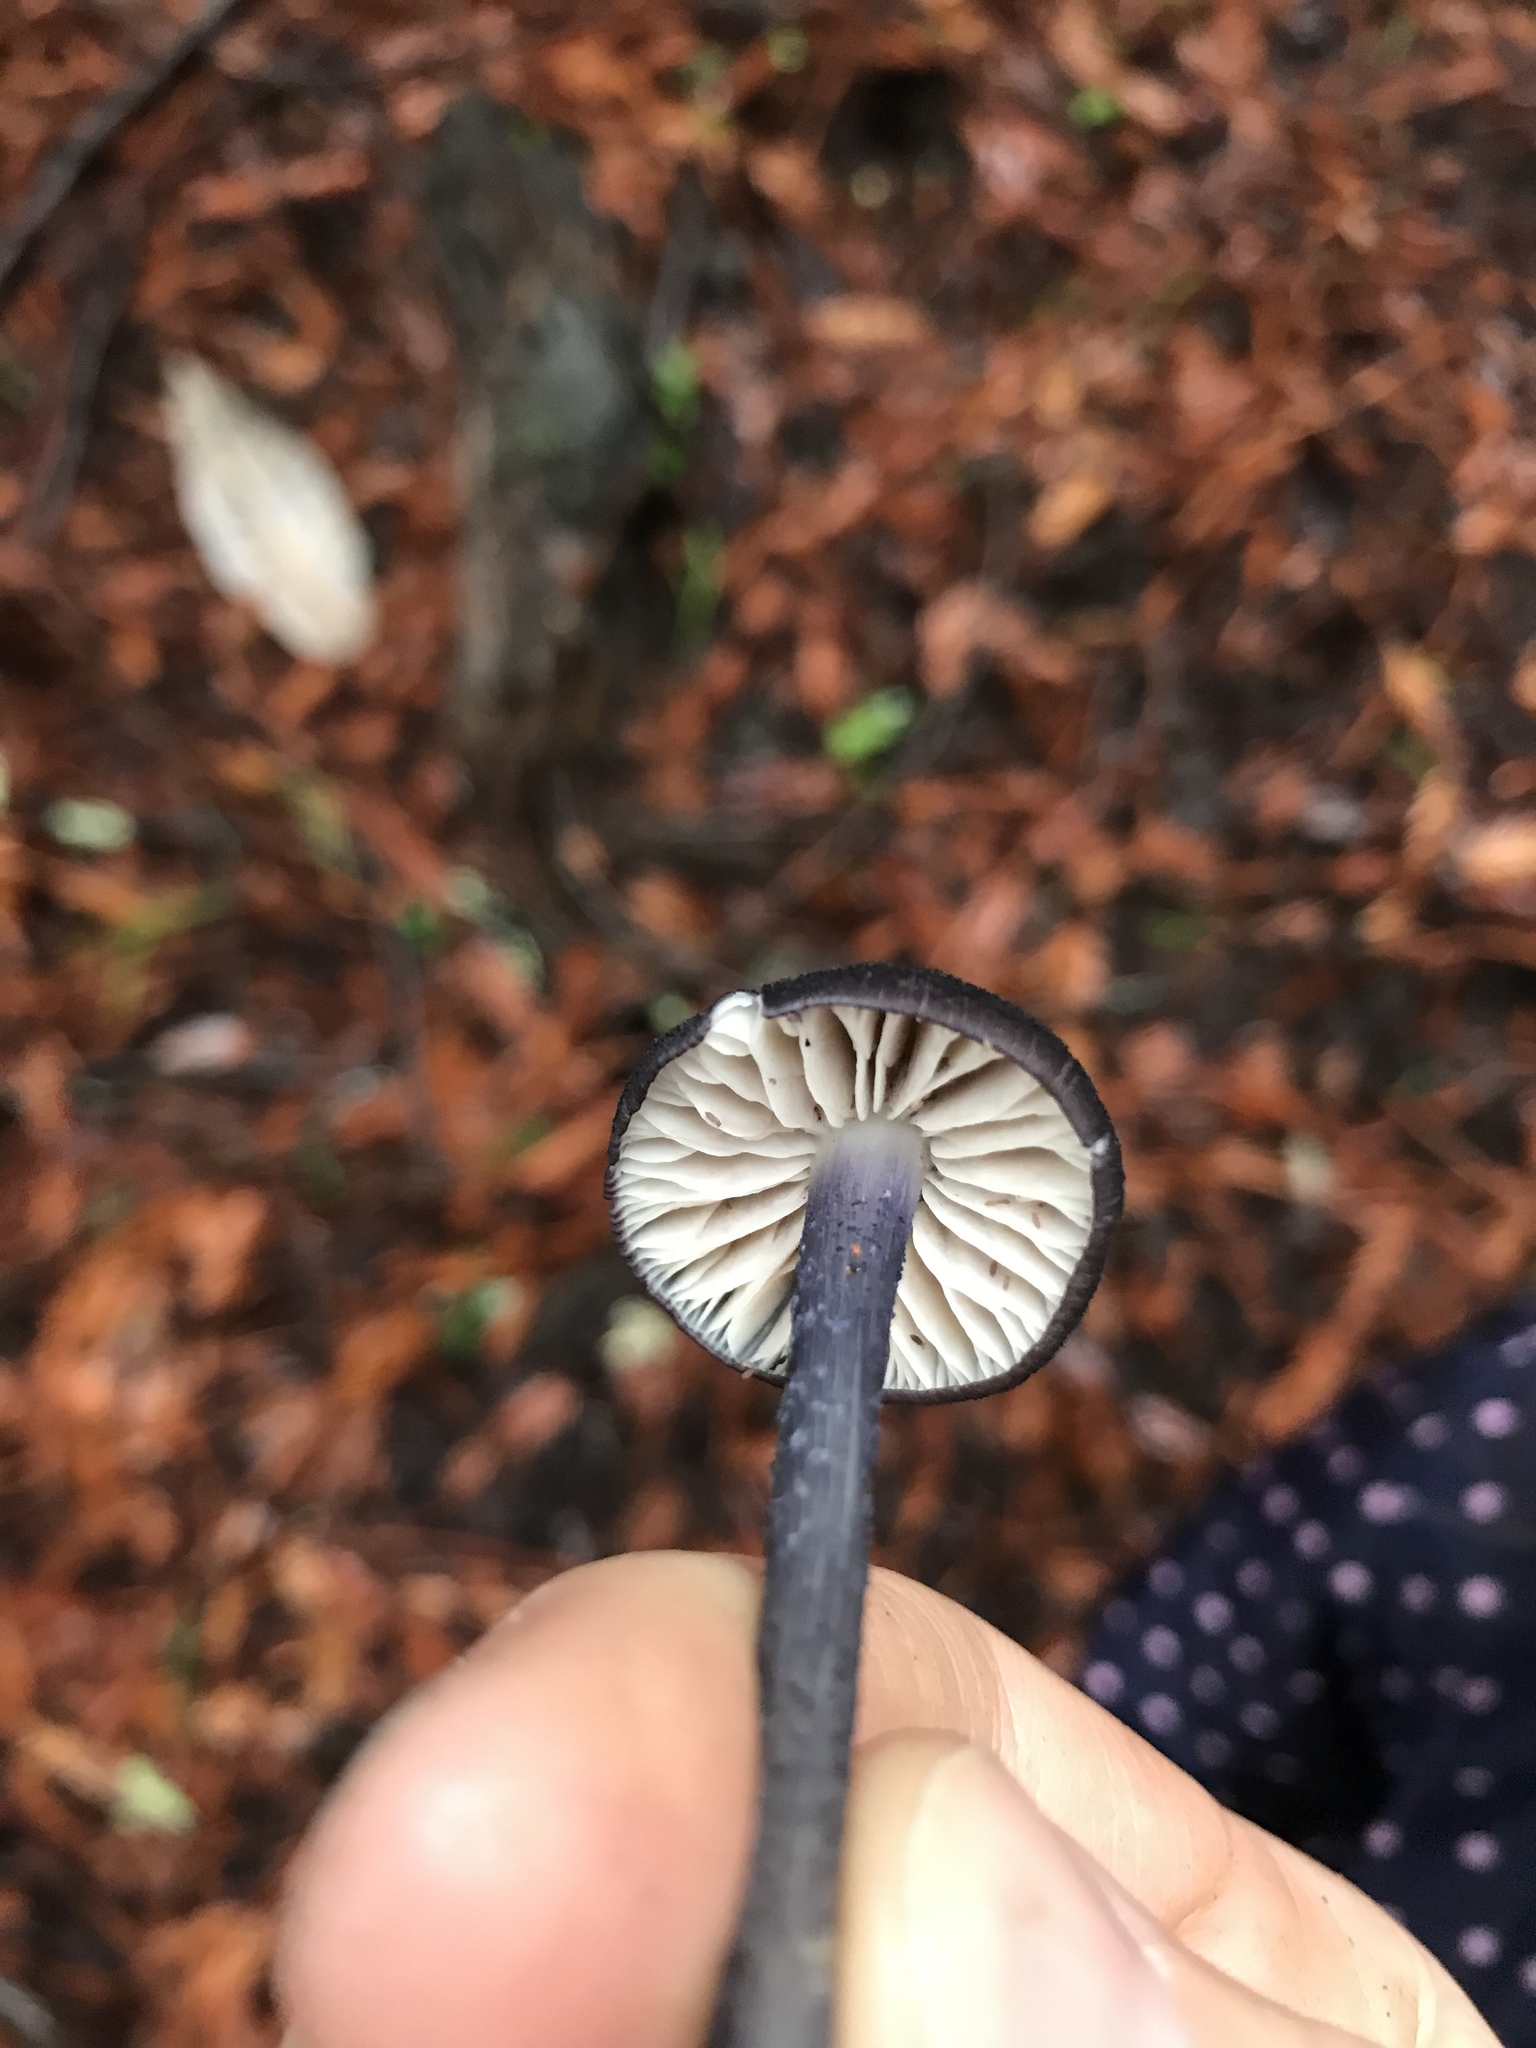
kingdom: Fungi
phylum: Basidiomycota
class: Agaricomycetes
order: Agaricales
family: Entolomataceae
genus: Entoloma
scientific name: Entoloma pigmentosipes
